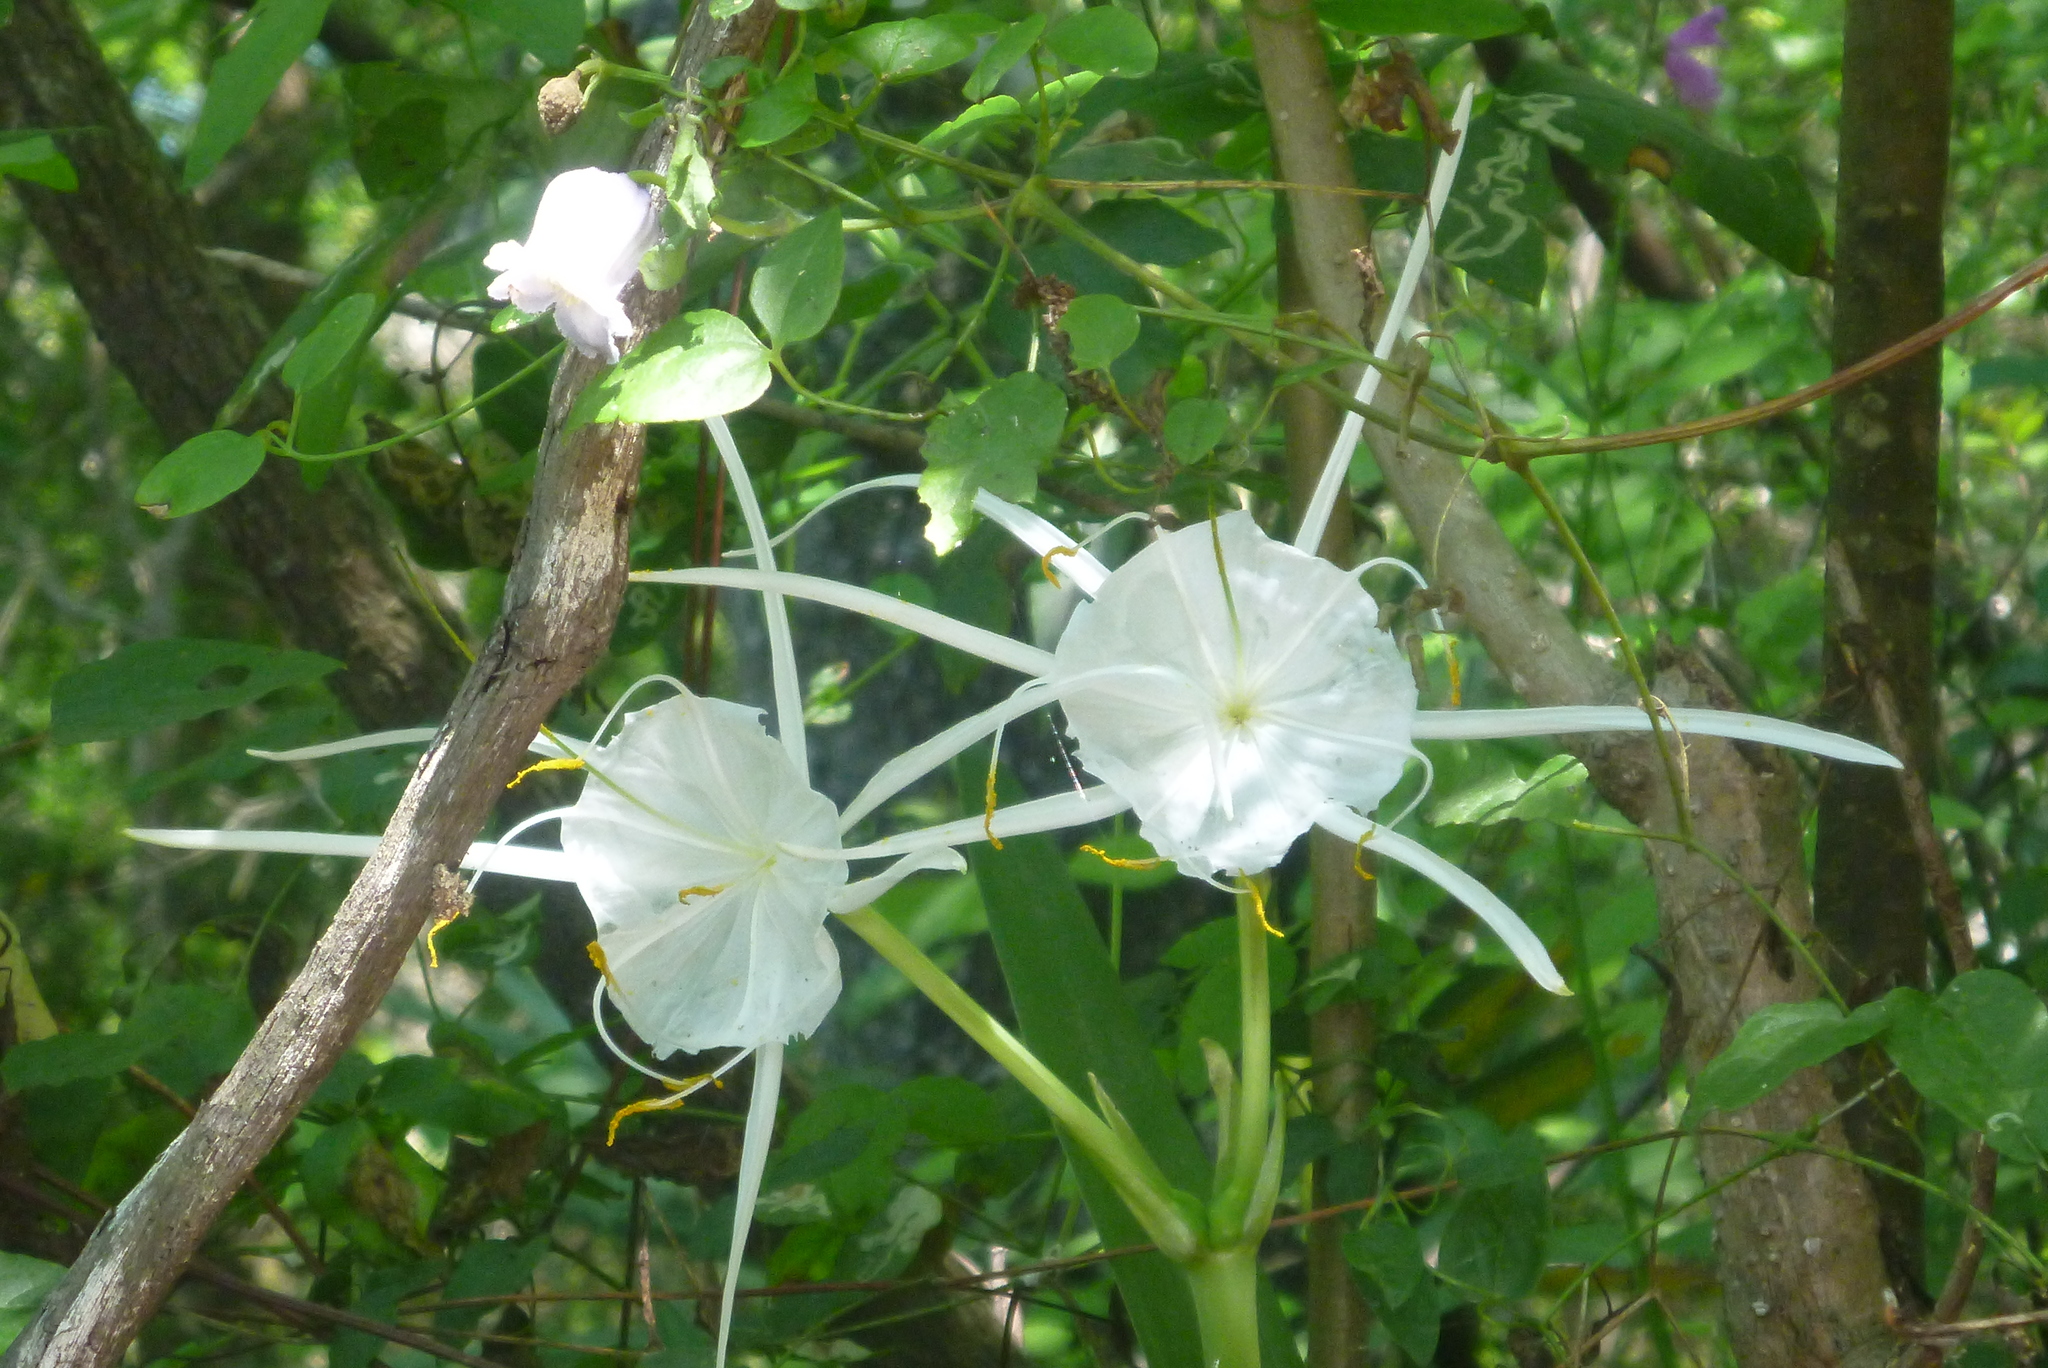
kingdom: Plantae
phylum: Tracheophyta
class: Liliopsida
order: Asparagales
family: Amaryllidaceae
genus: Hymenocallis
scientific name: Hymenocallis franklinensis
